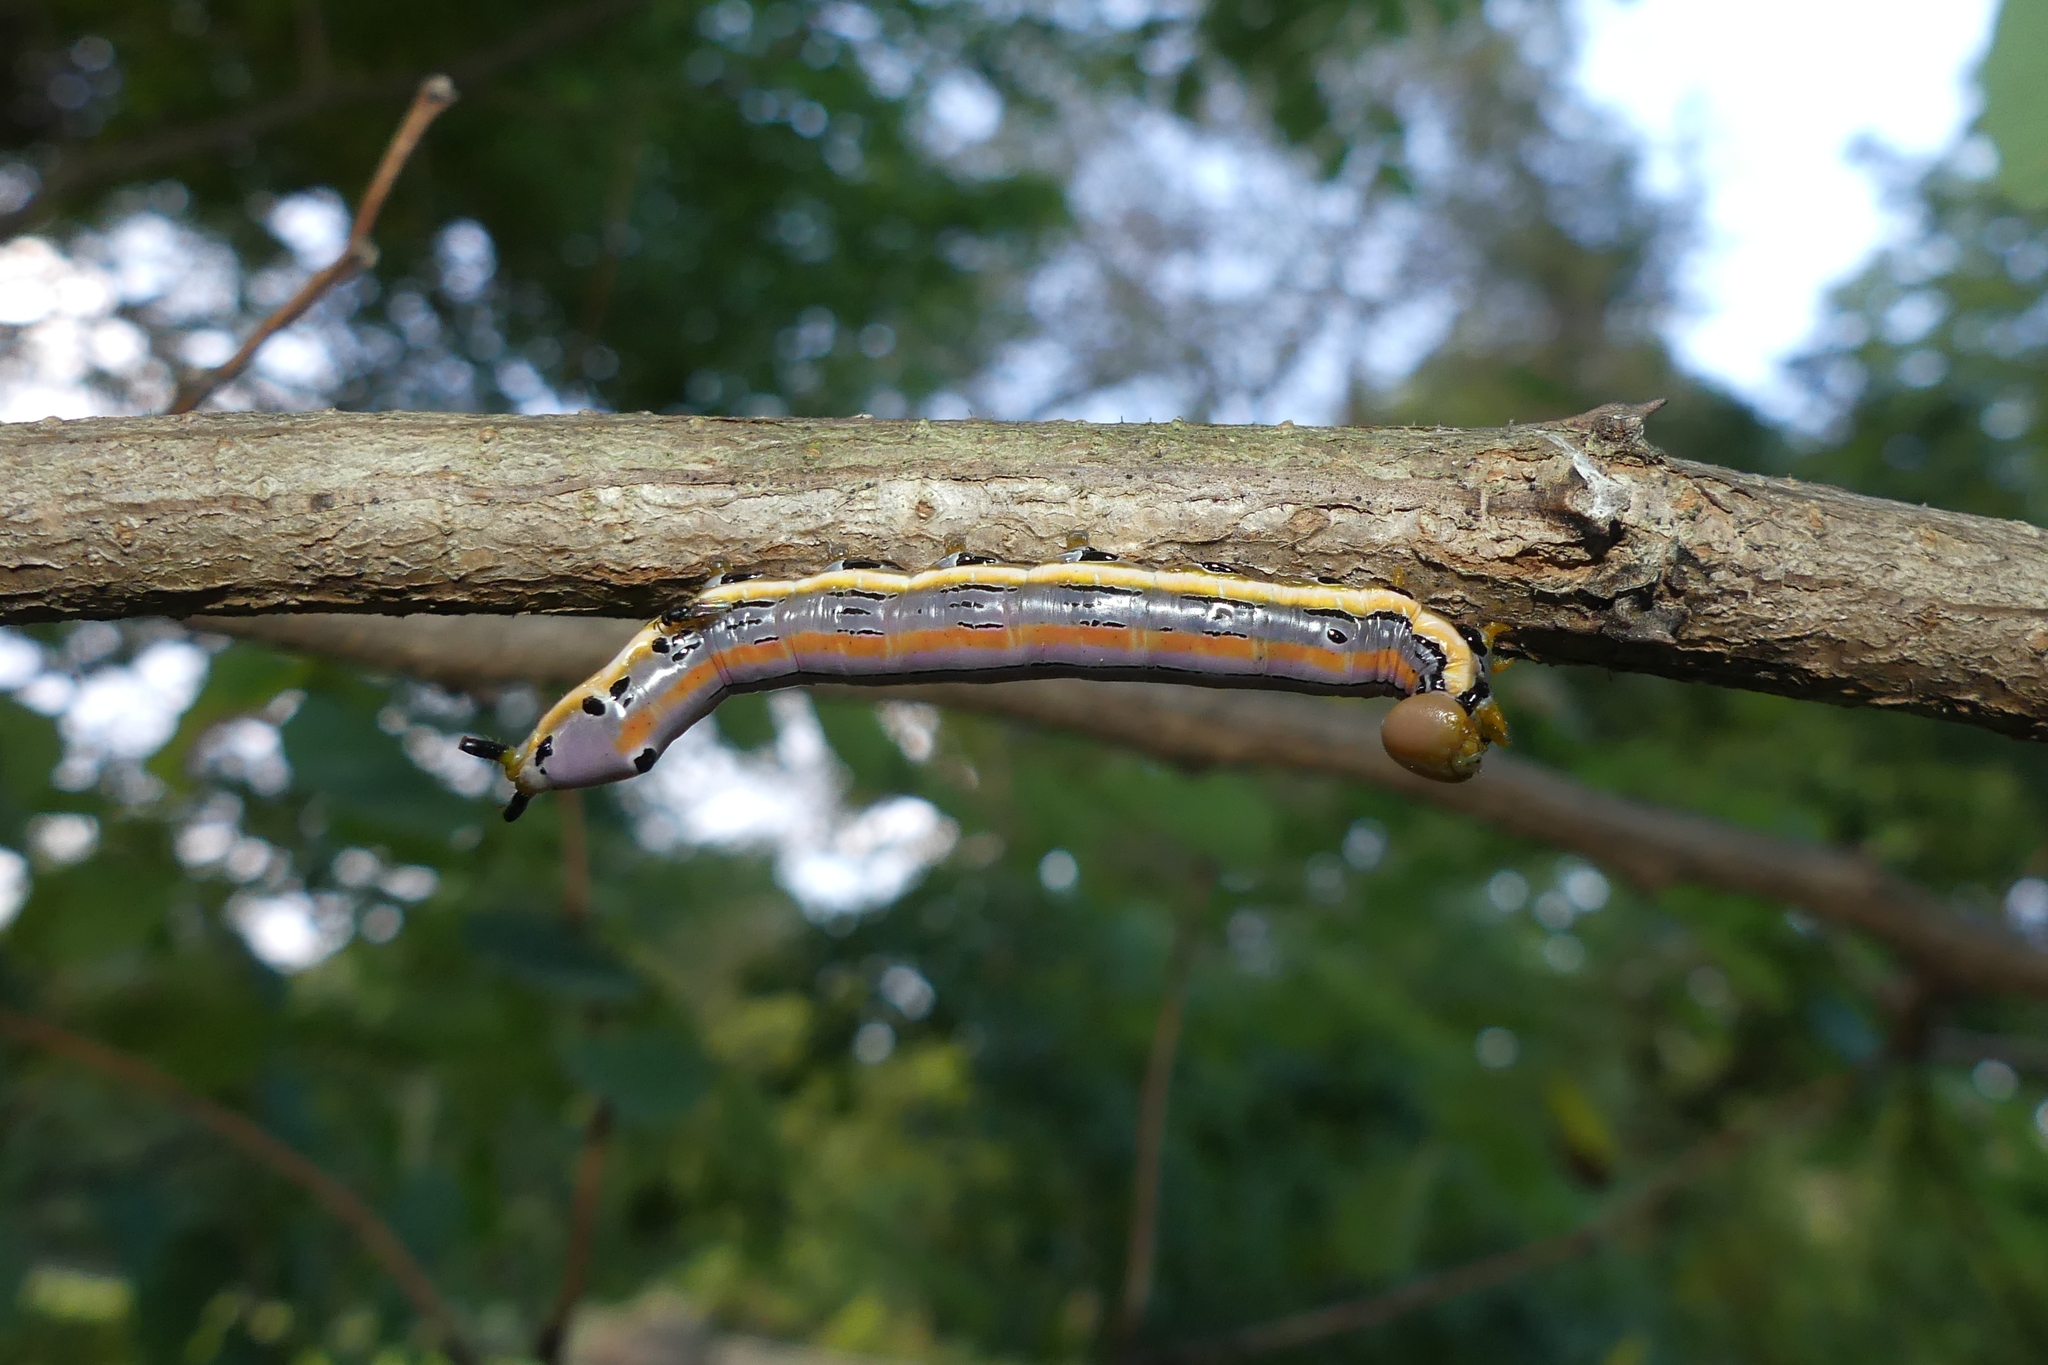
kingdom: Animalia
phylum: Arthropoda
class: Insecta
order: Lepidoptera
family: Notodontidae
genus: Dasylophia
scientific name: Dasylophia anguina
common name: Black-spotted prominent
